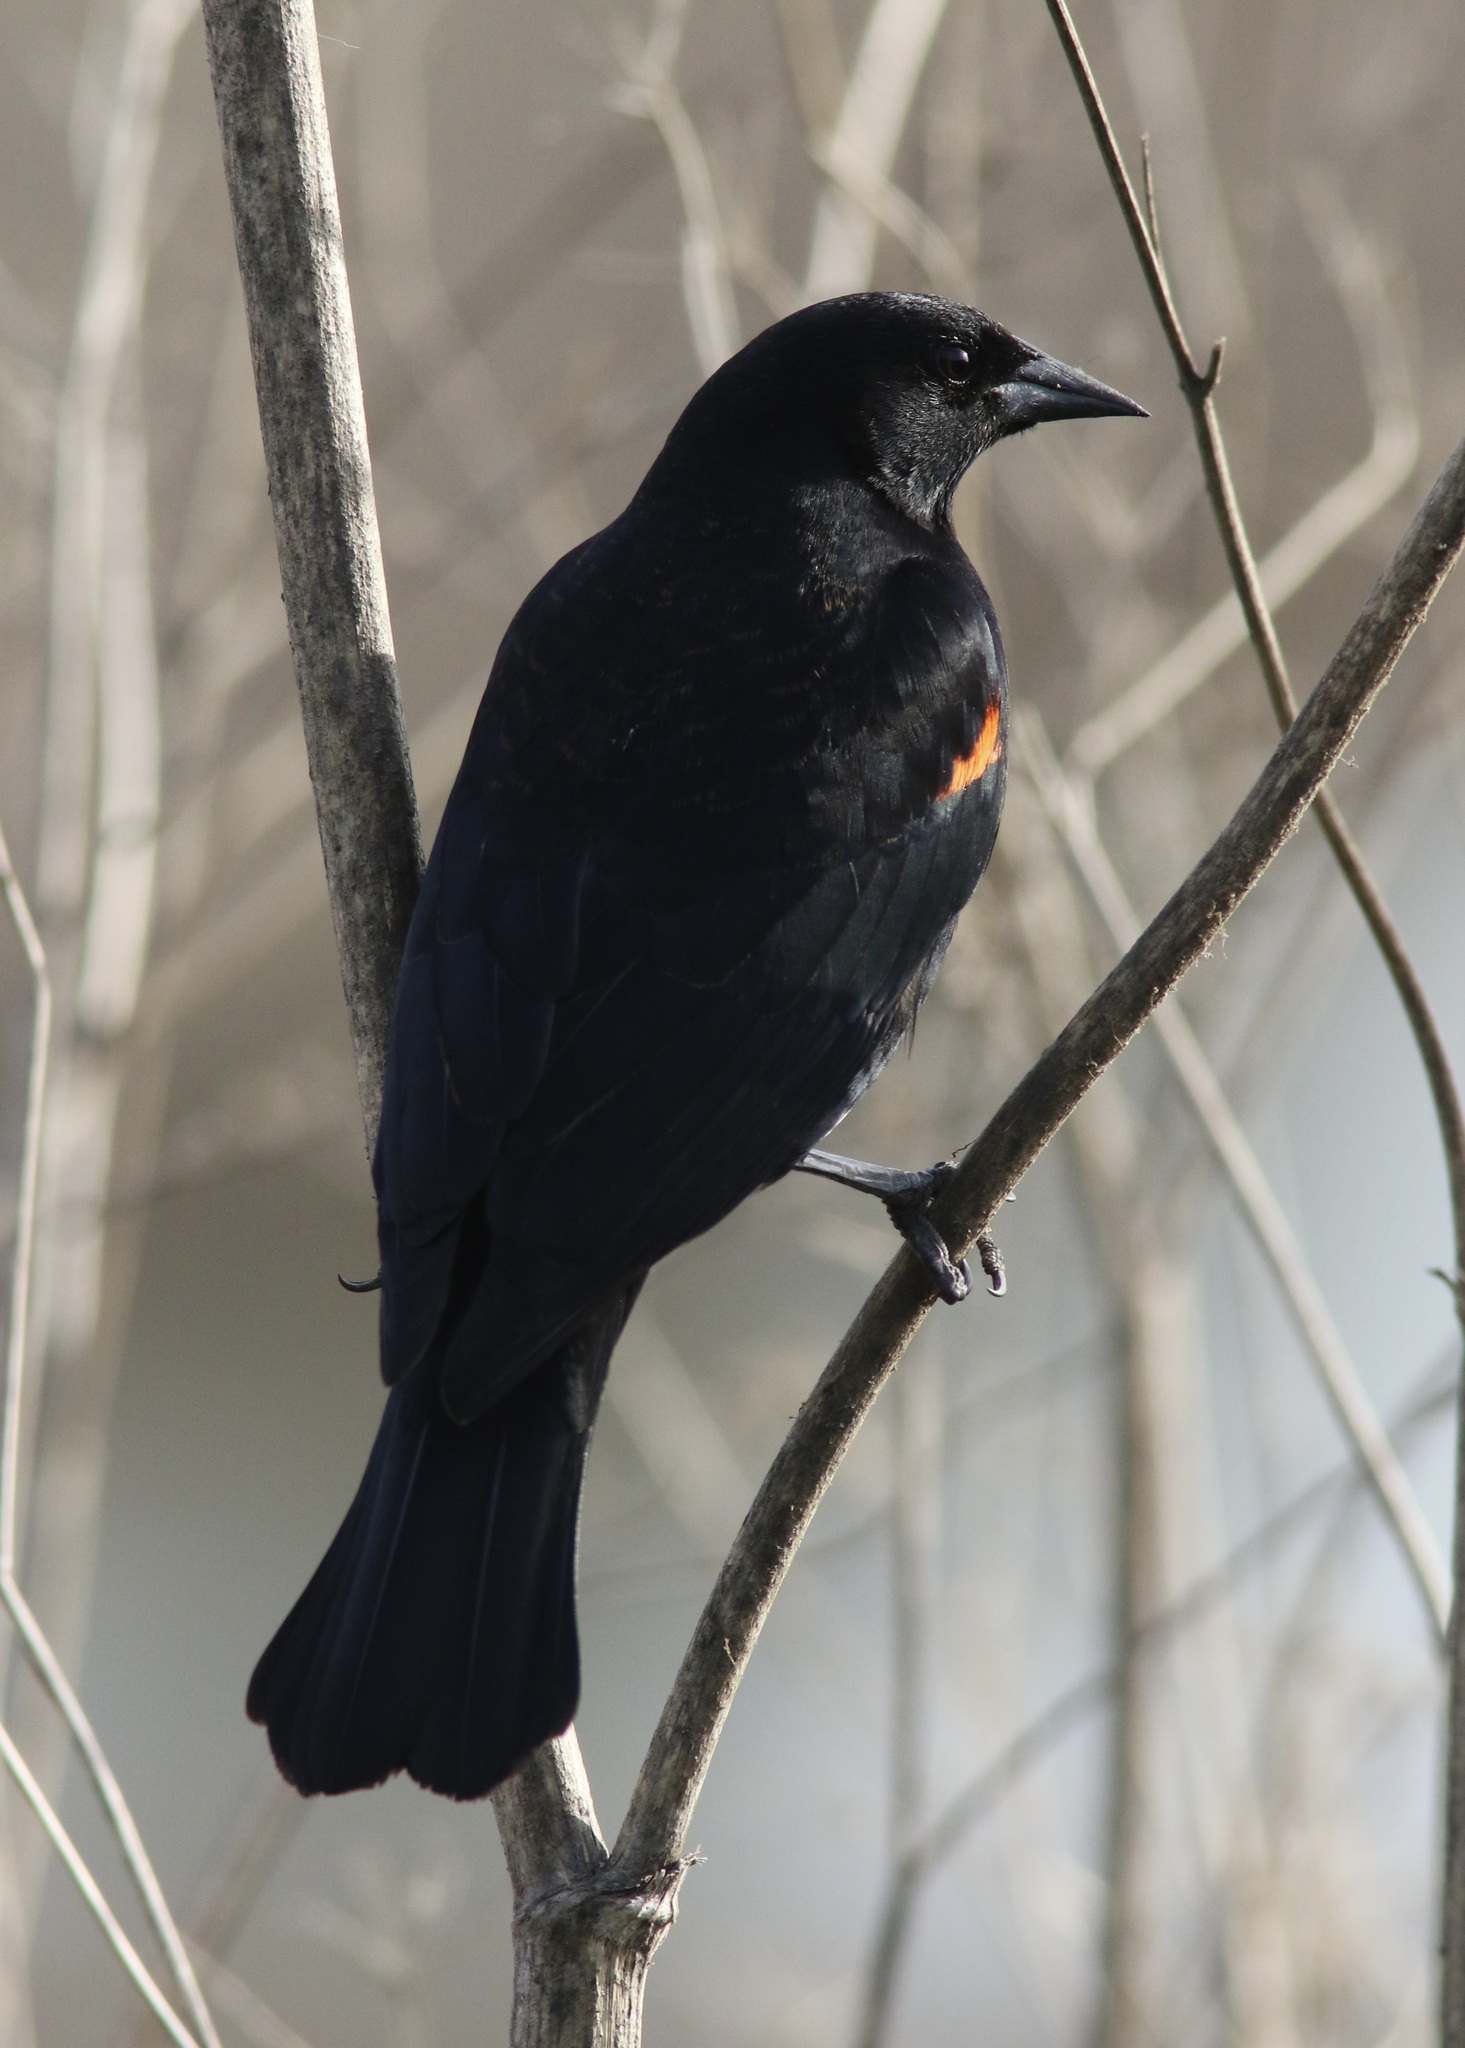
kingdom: Animalia
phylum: Chordata
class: Aves
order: Passeriformes
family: Icteridae
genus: Agelaius
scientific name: Agelaius phoeniceus
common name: Red-winged blackbird
